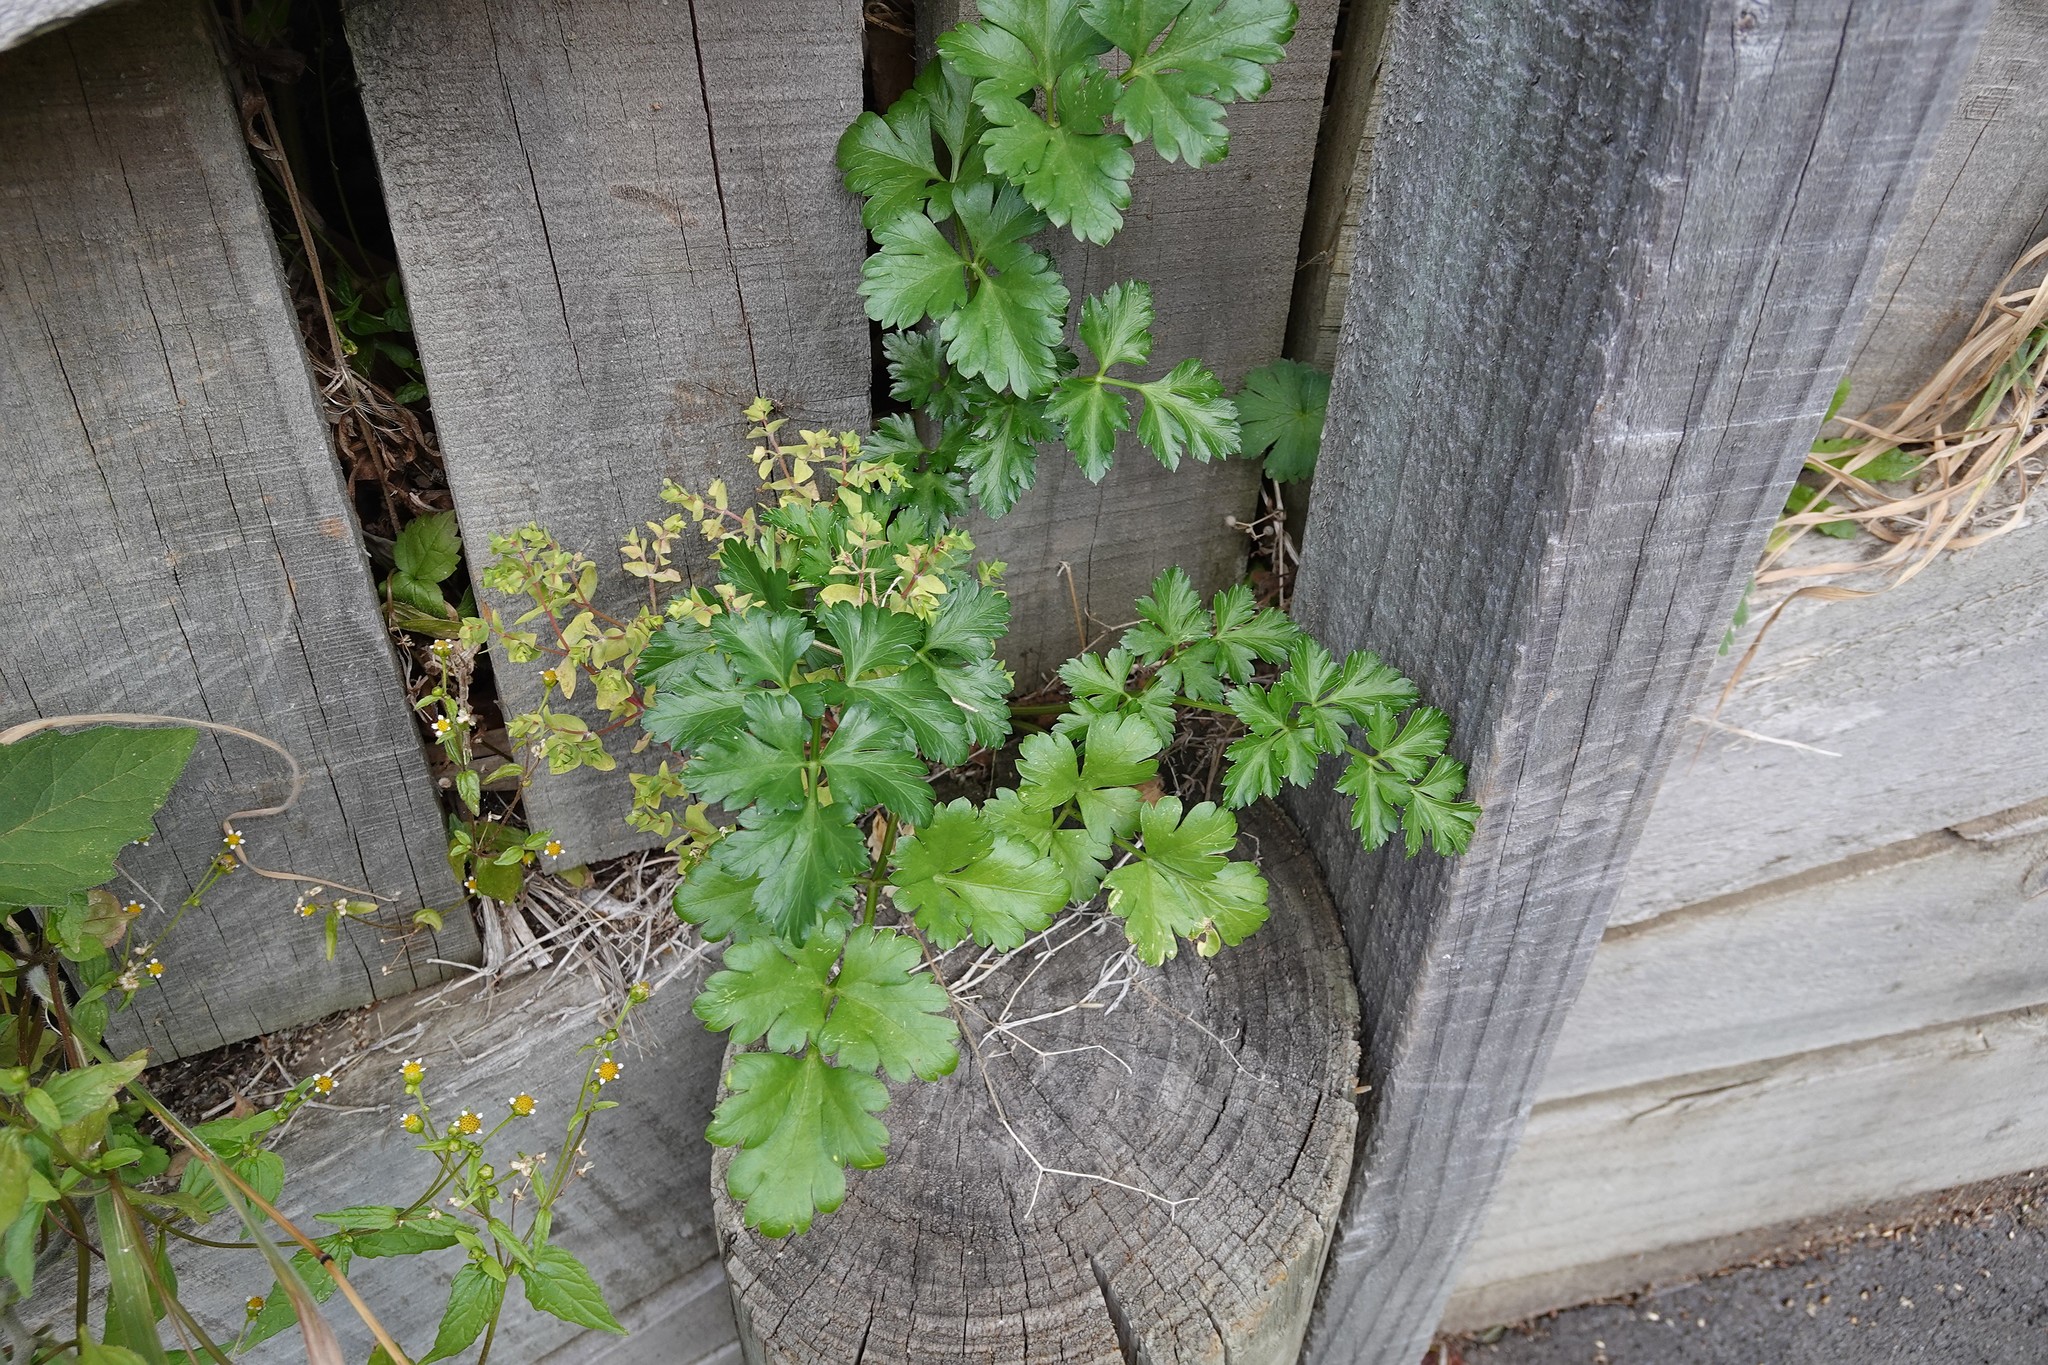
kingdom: Plantae
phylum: Tracheophyta
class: Magnoliopsida
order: Apiales
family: Apiaceae
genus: Petroselinum
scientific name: Petroselinum crispum
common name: Parsley
